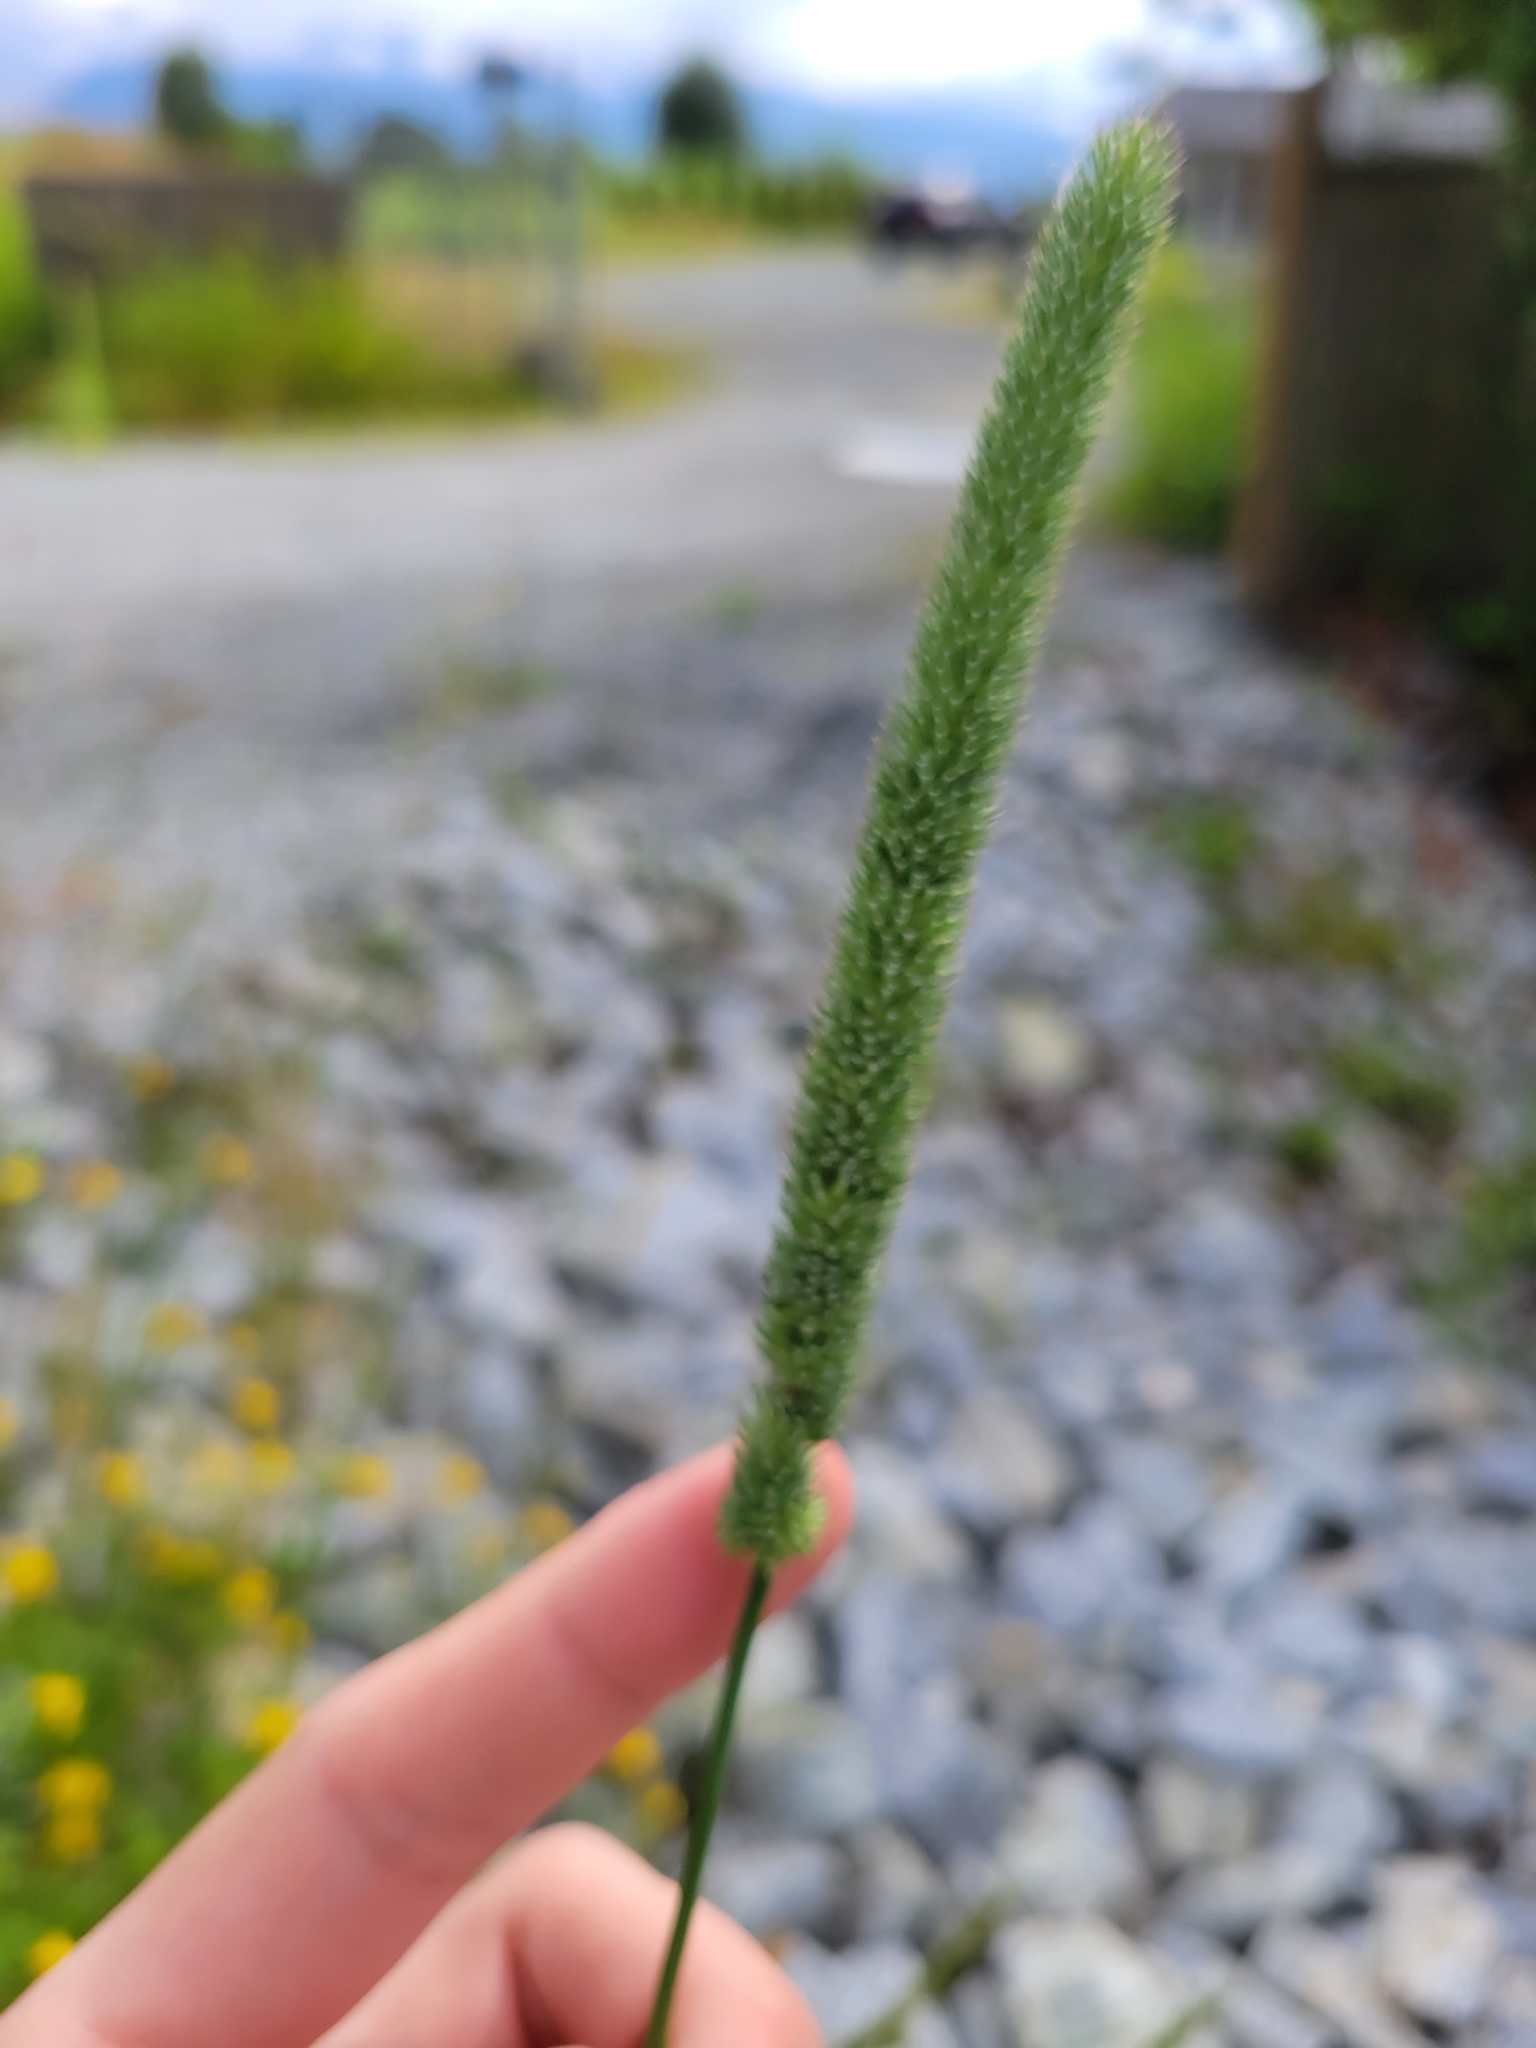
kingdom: Plantae
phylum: Tracheophyta
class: Liliopsida
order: Poales
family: Poaceae
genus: Phleum
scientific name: Phleum pratense
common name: Timothy grass
